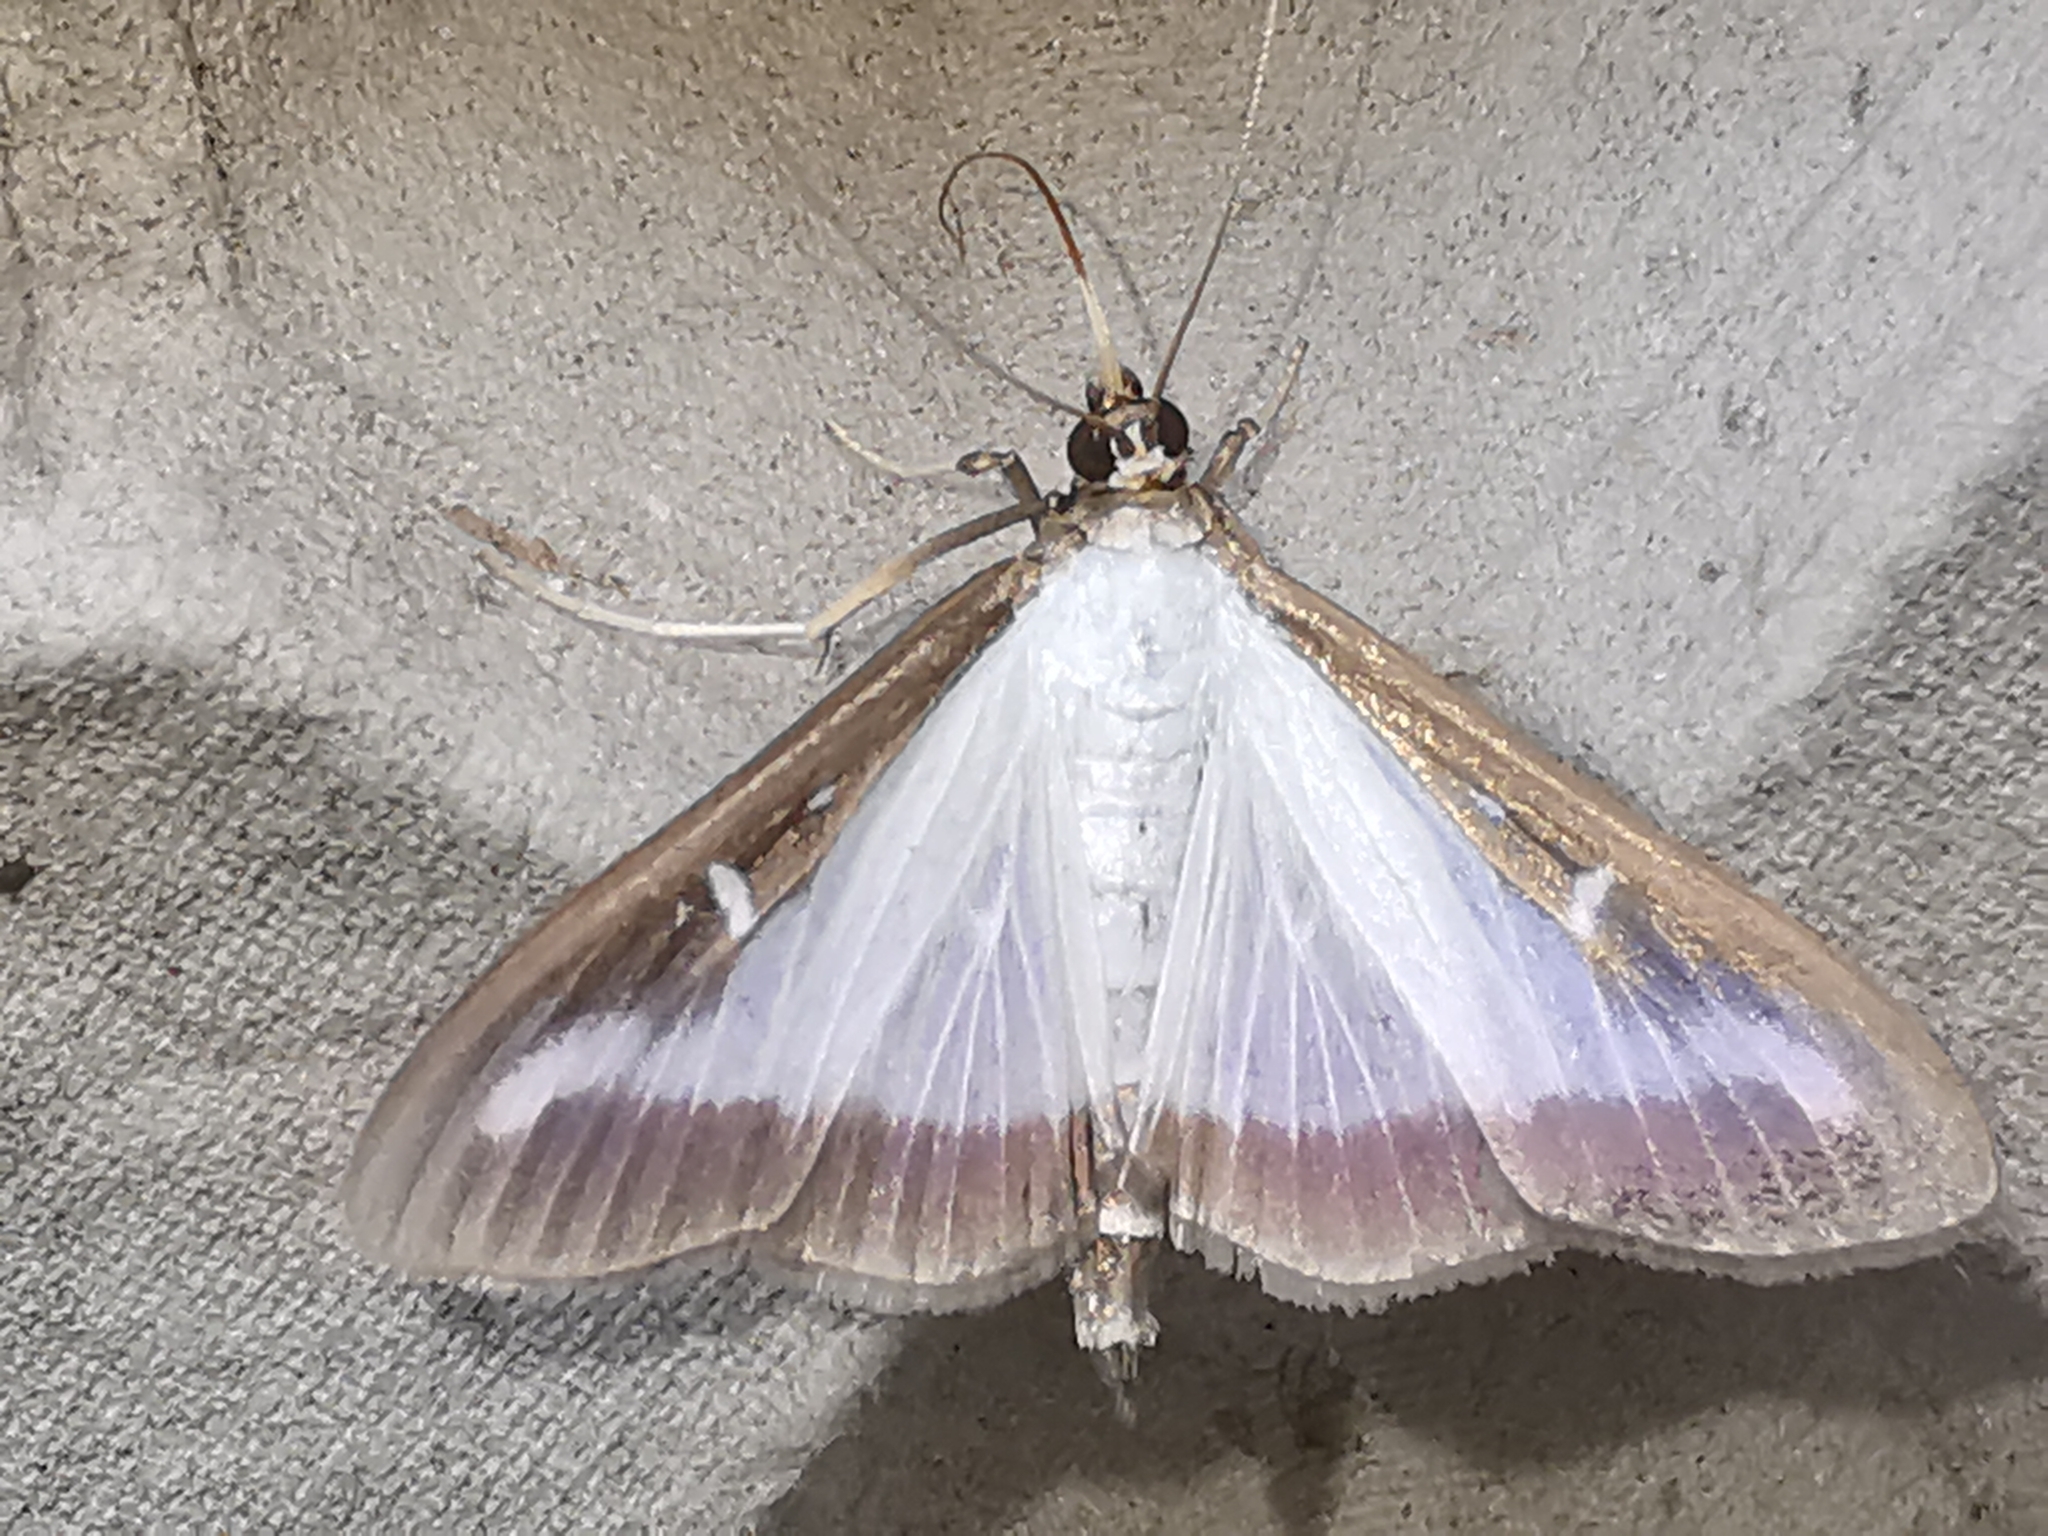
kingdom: Animalia
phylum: Arthropoda
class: Insecta
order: Lepidoptera
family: Crambidae
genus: Cydalima
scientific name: Cydalima perspectalis
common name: Box tree moth
